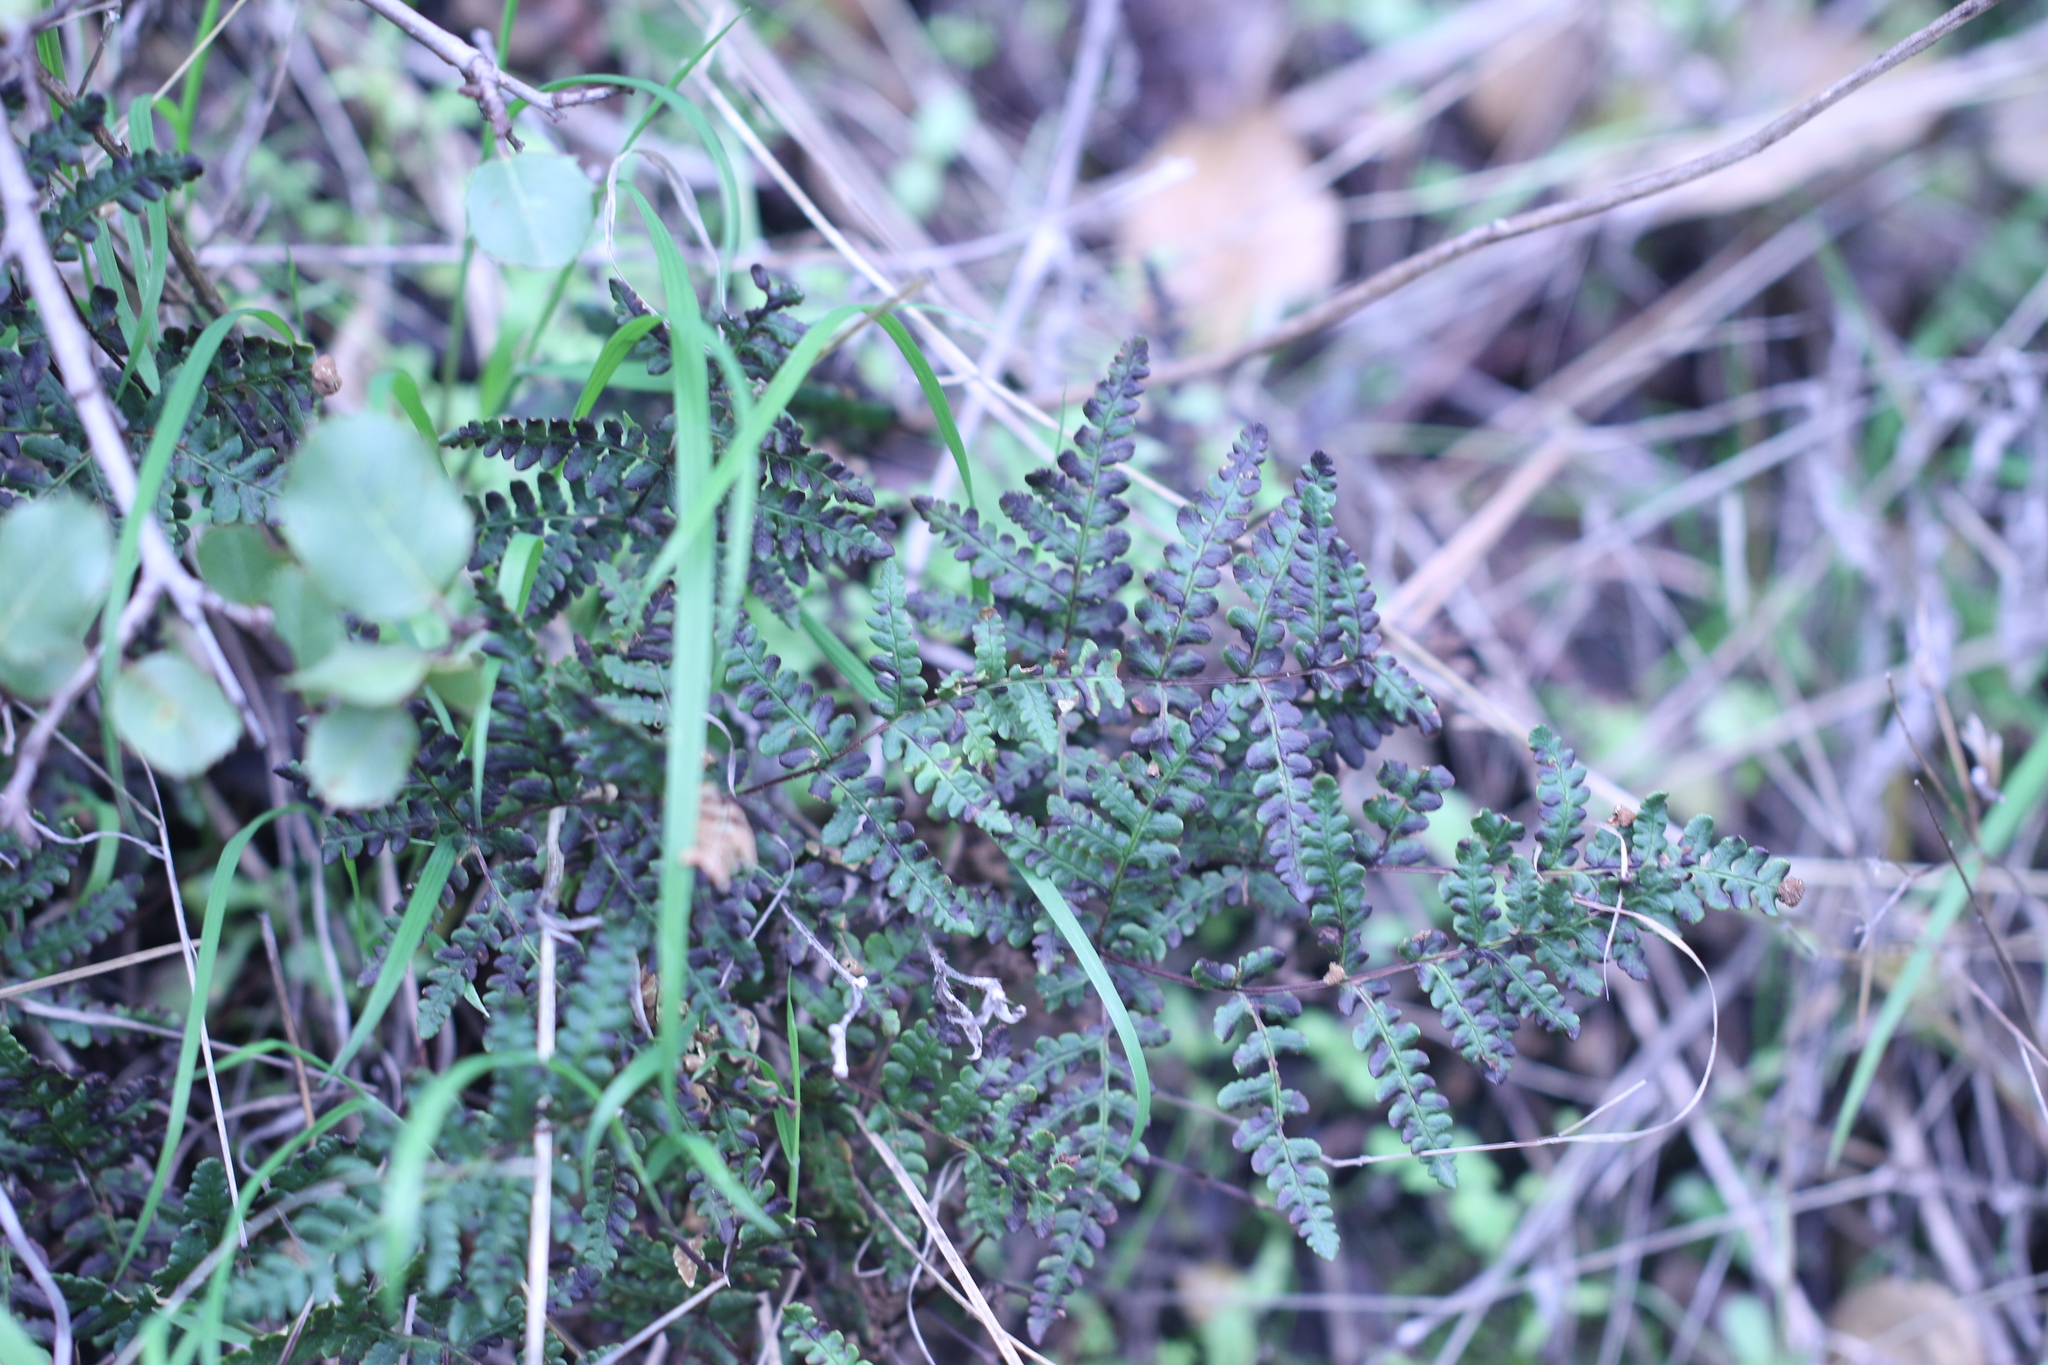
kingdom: Plantae
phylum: Tracheophyta
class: Polypodiopsida
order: Polypodiales
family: Pteridaceae
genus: Pentagramma
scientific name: Pentagramma triangularis
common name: Gold fern
